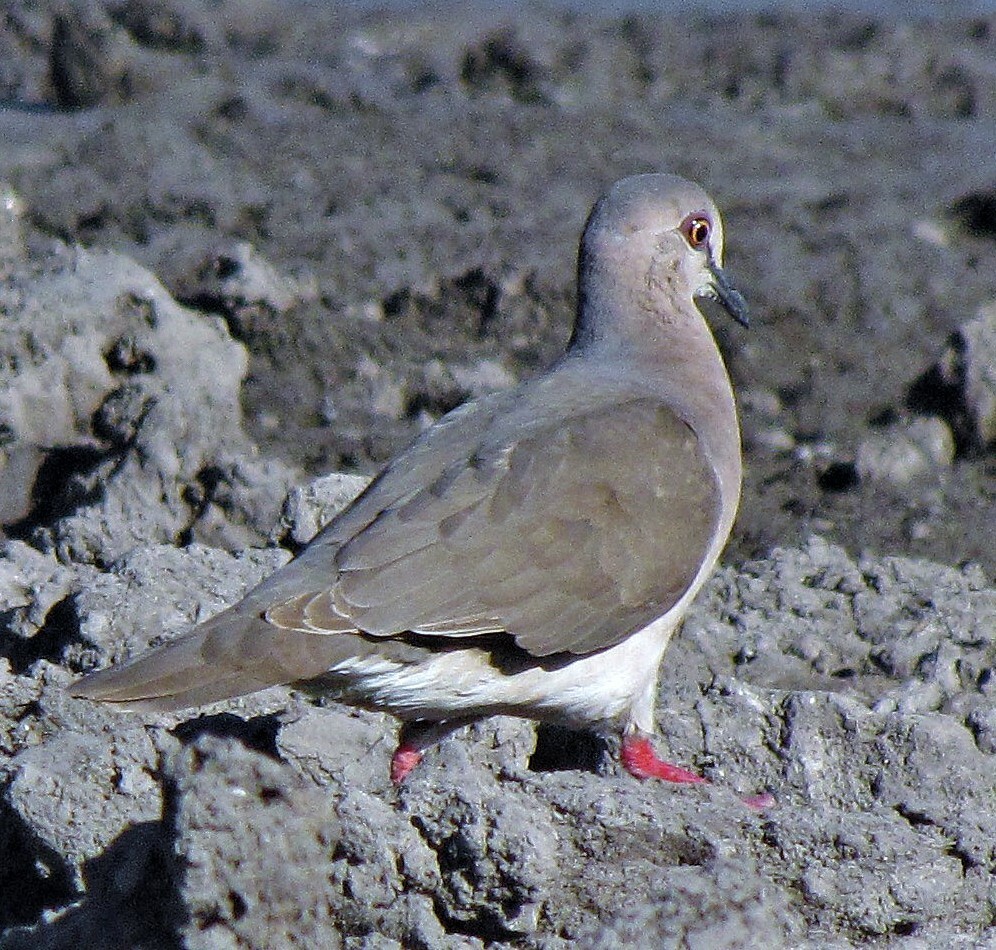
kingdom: Animalia
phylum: Chordata
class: Aves
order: Columbiformes
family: Columbidae
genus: Leptotila
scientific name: Leptotila verreauxi
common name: White-tipped dove
